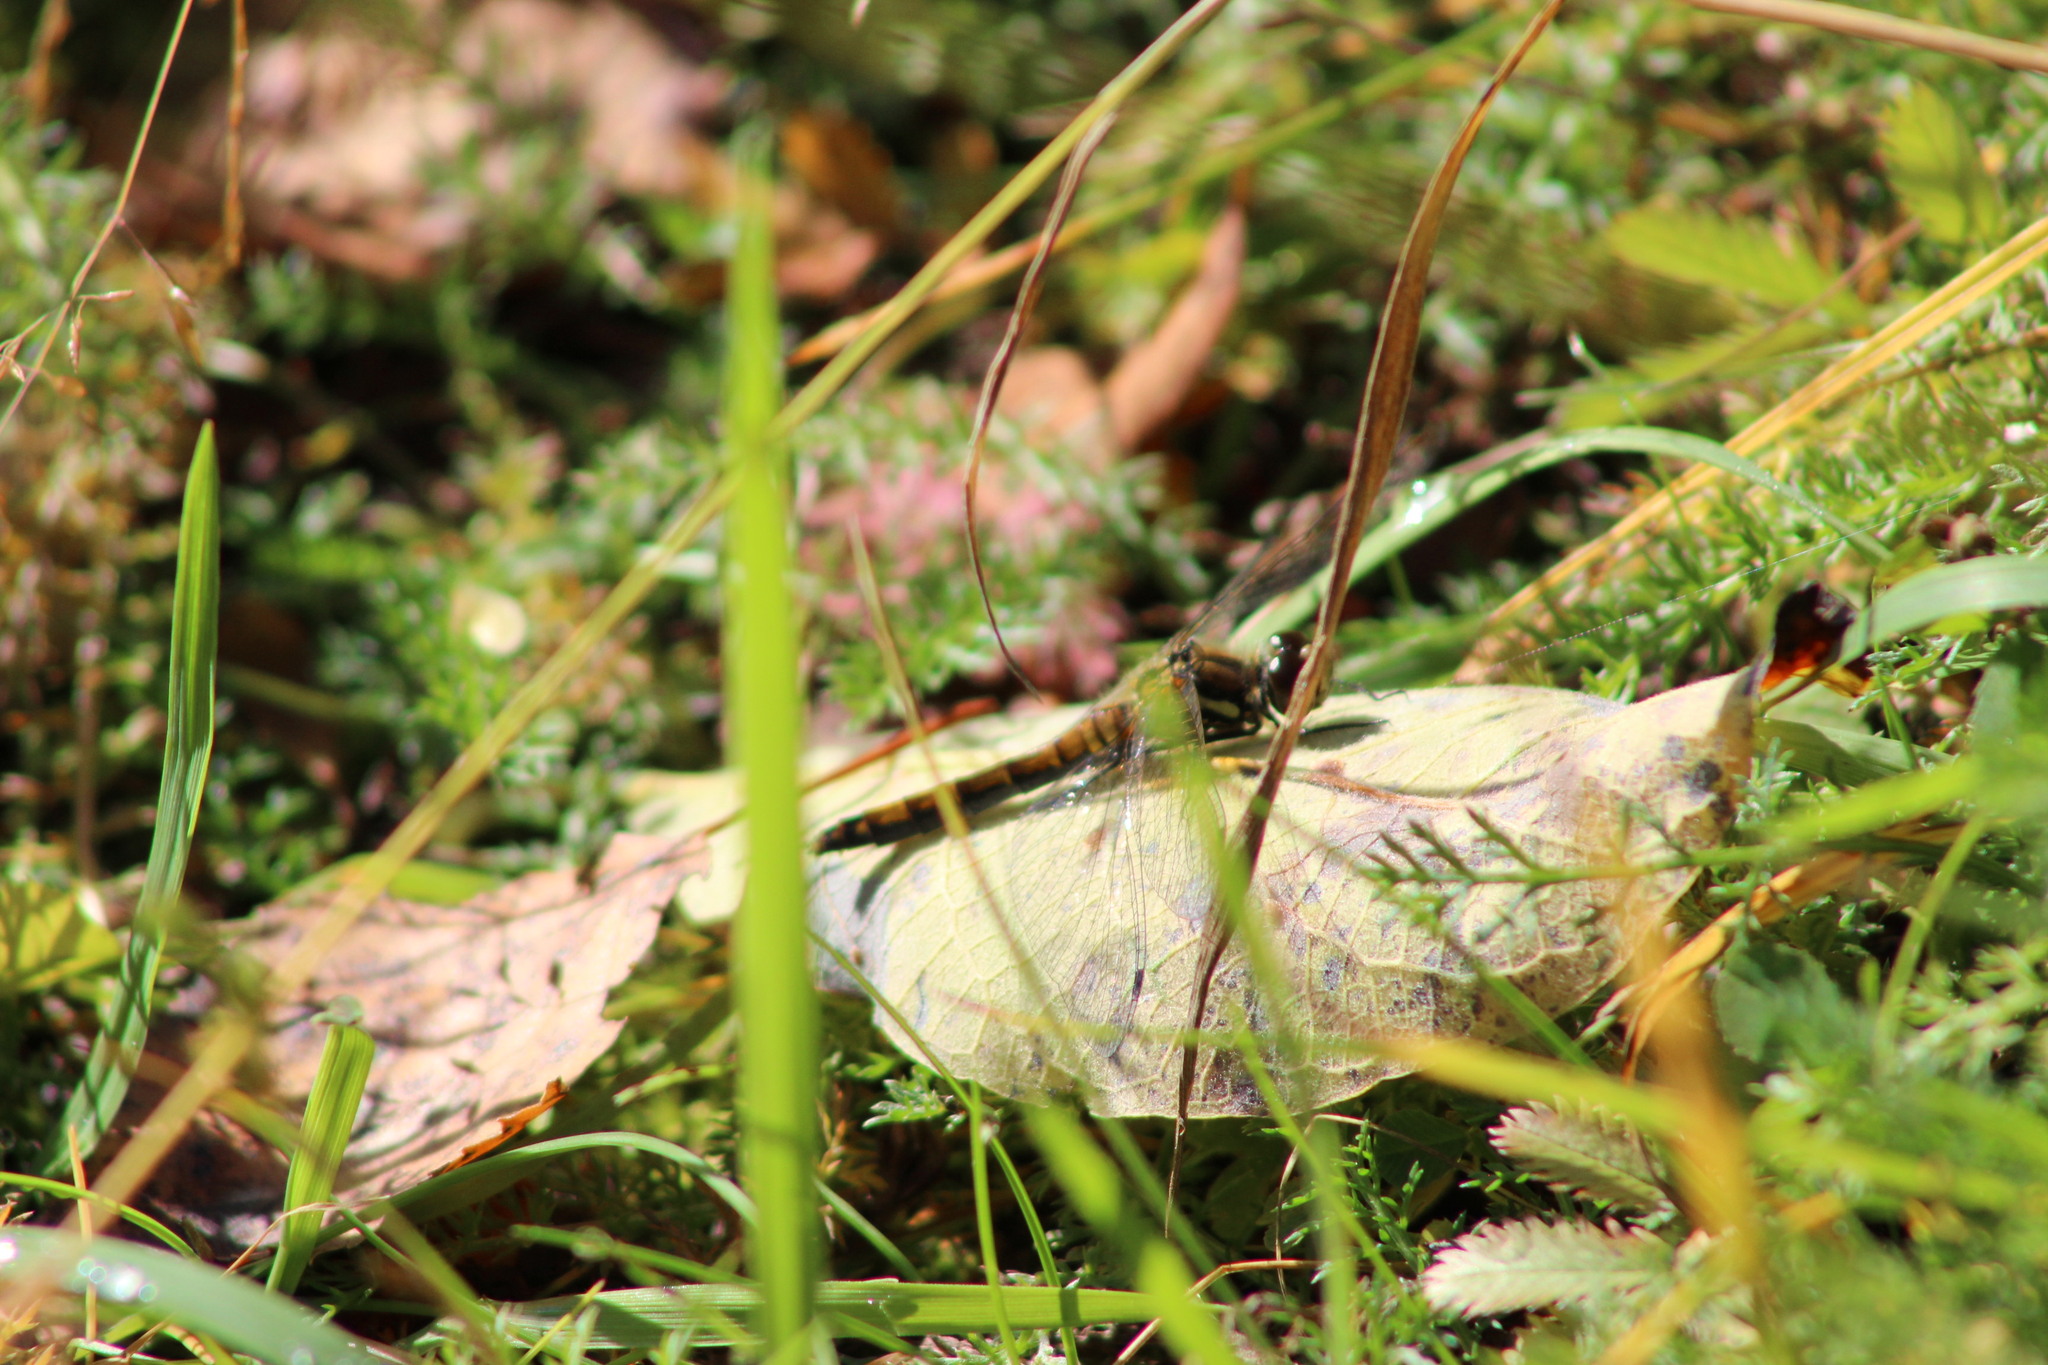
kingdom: Animalia
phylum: Arthropoda
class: Insecta
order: Odonata
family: Libellulidae
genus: Sympetrum
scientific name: Sympetrum danae
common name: Black darter
